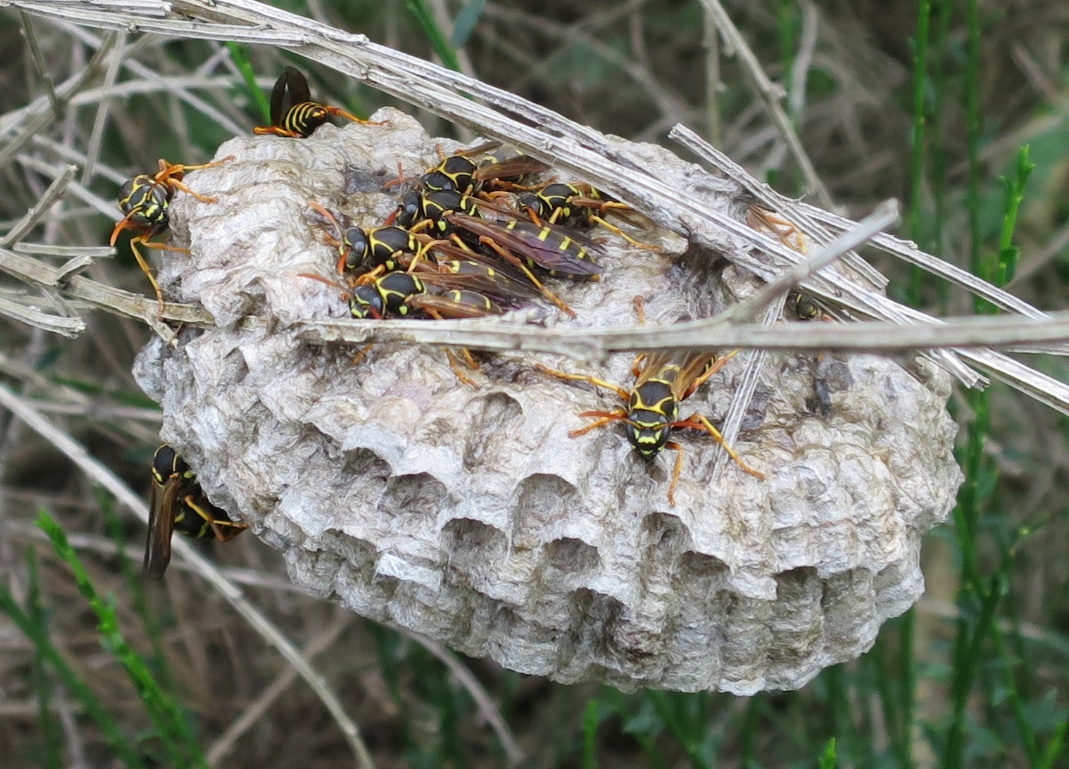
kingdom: Animalia
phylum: Arthropoda
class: Insecta
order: Hymenoptera
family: Eumenidae
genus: Polistes
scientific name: Polistes chinensis
